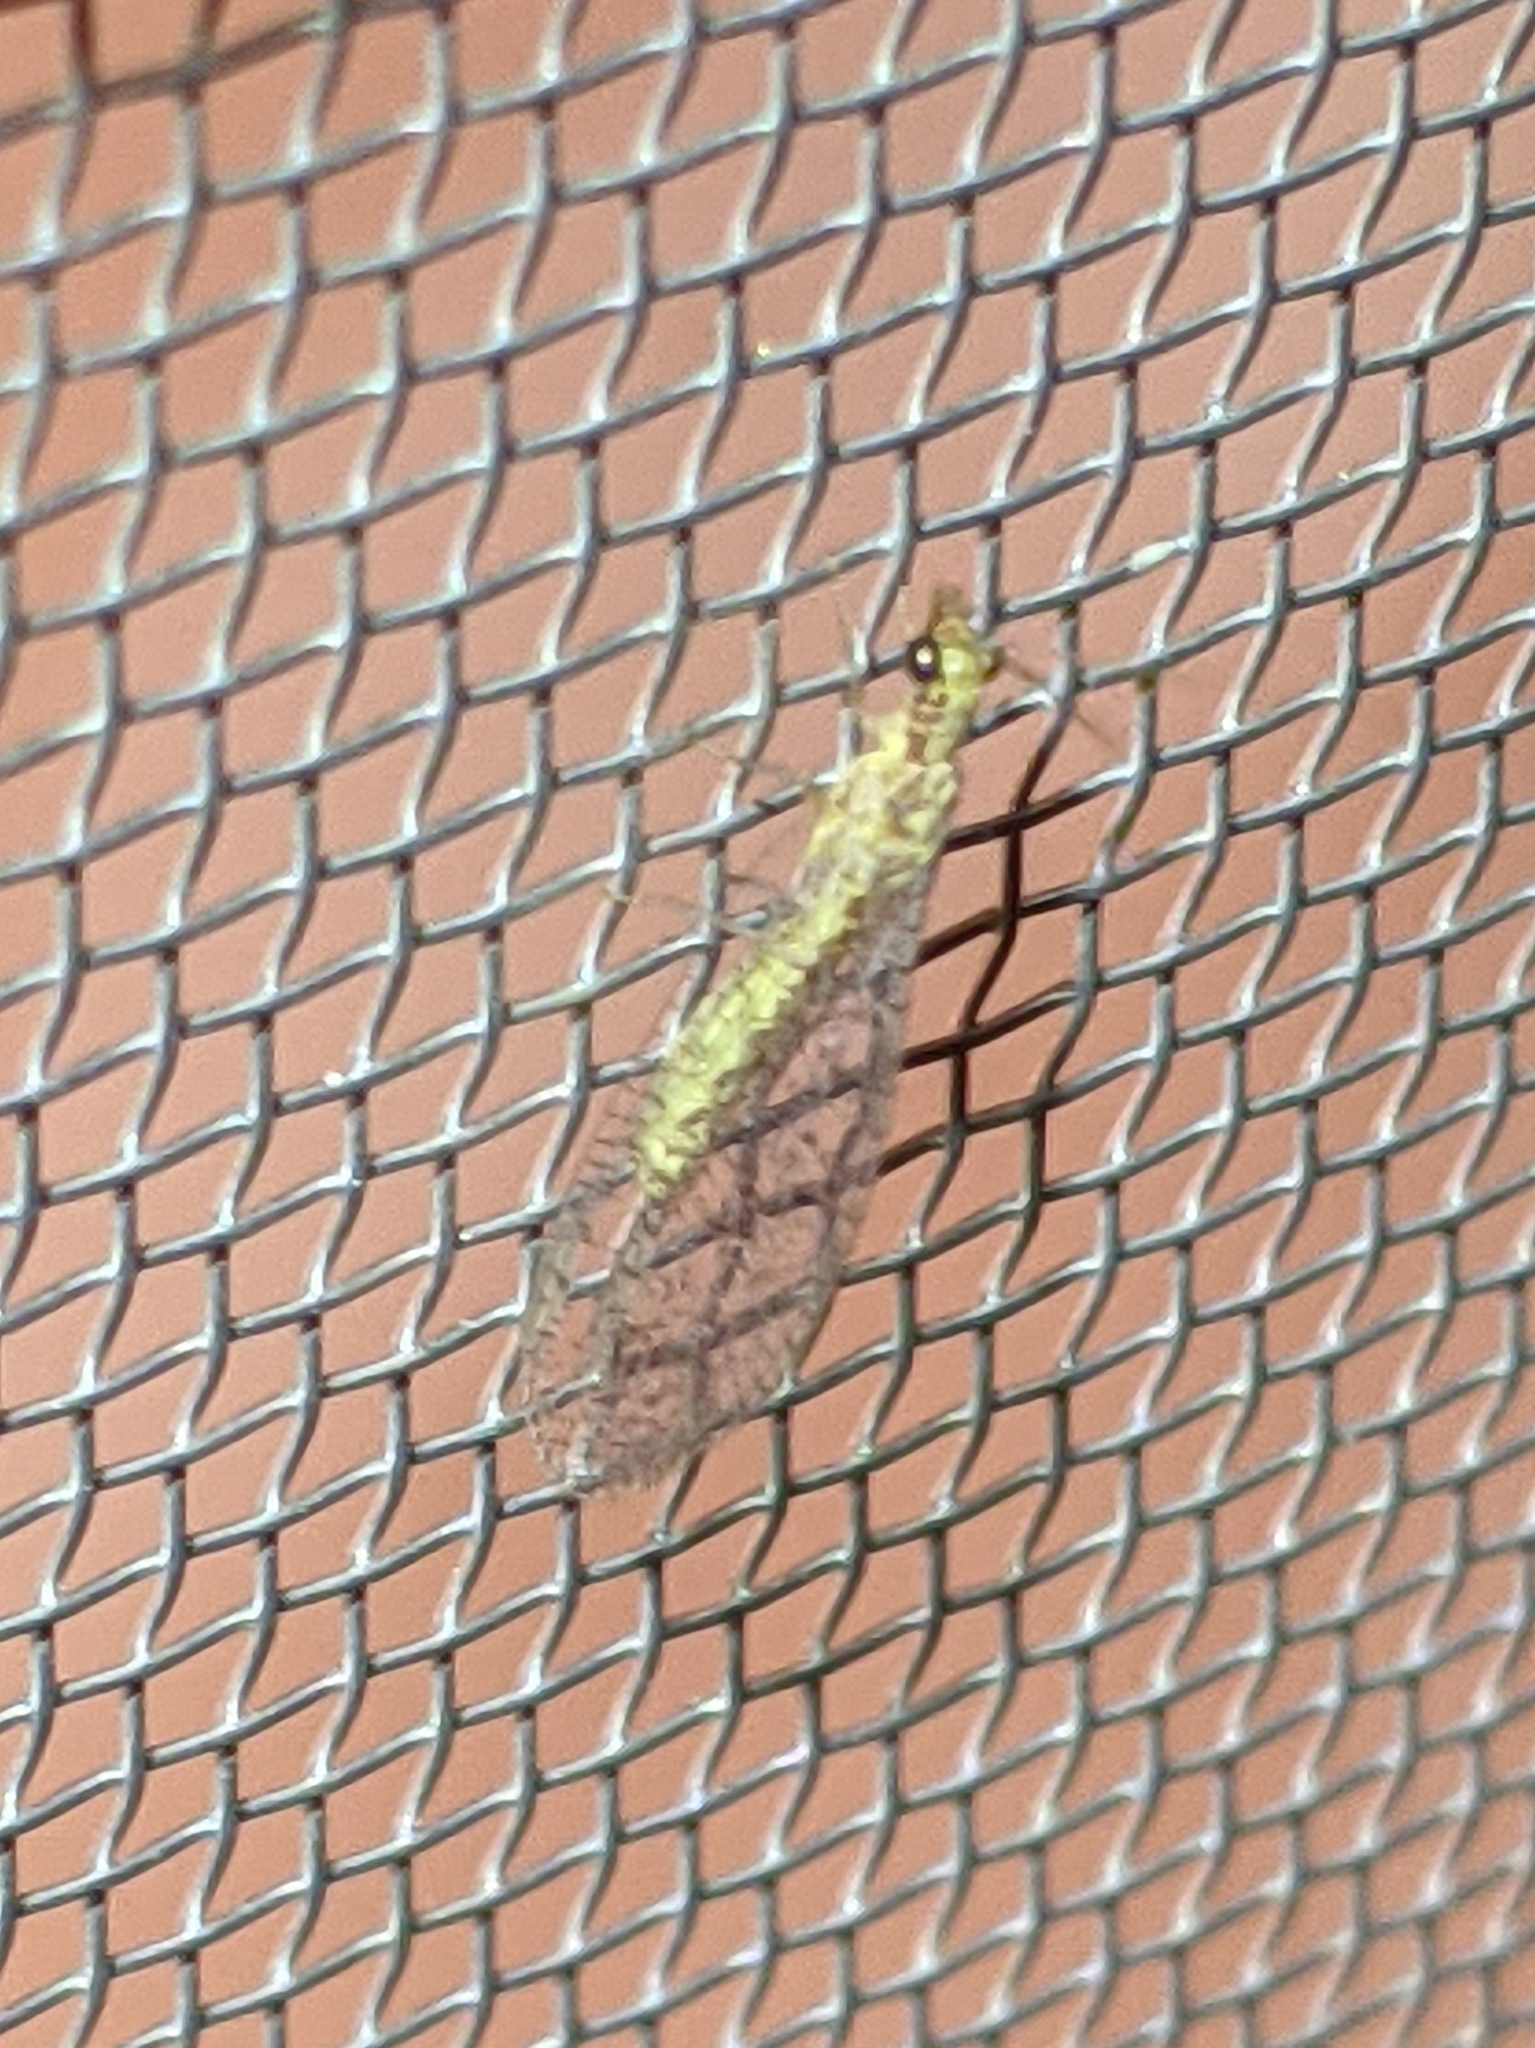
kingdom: Animalia
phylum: Arthropoda
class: Insecta
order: Neuroptera
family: Chrysopidae
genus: Eremochrysa
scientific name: Eremochrysa
